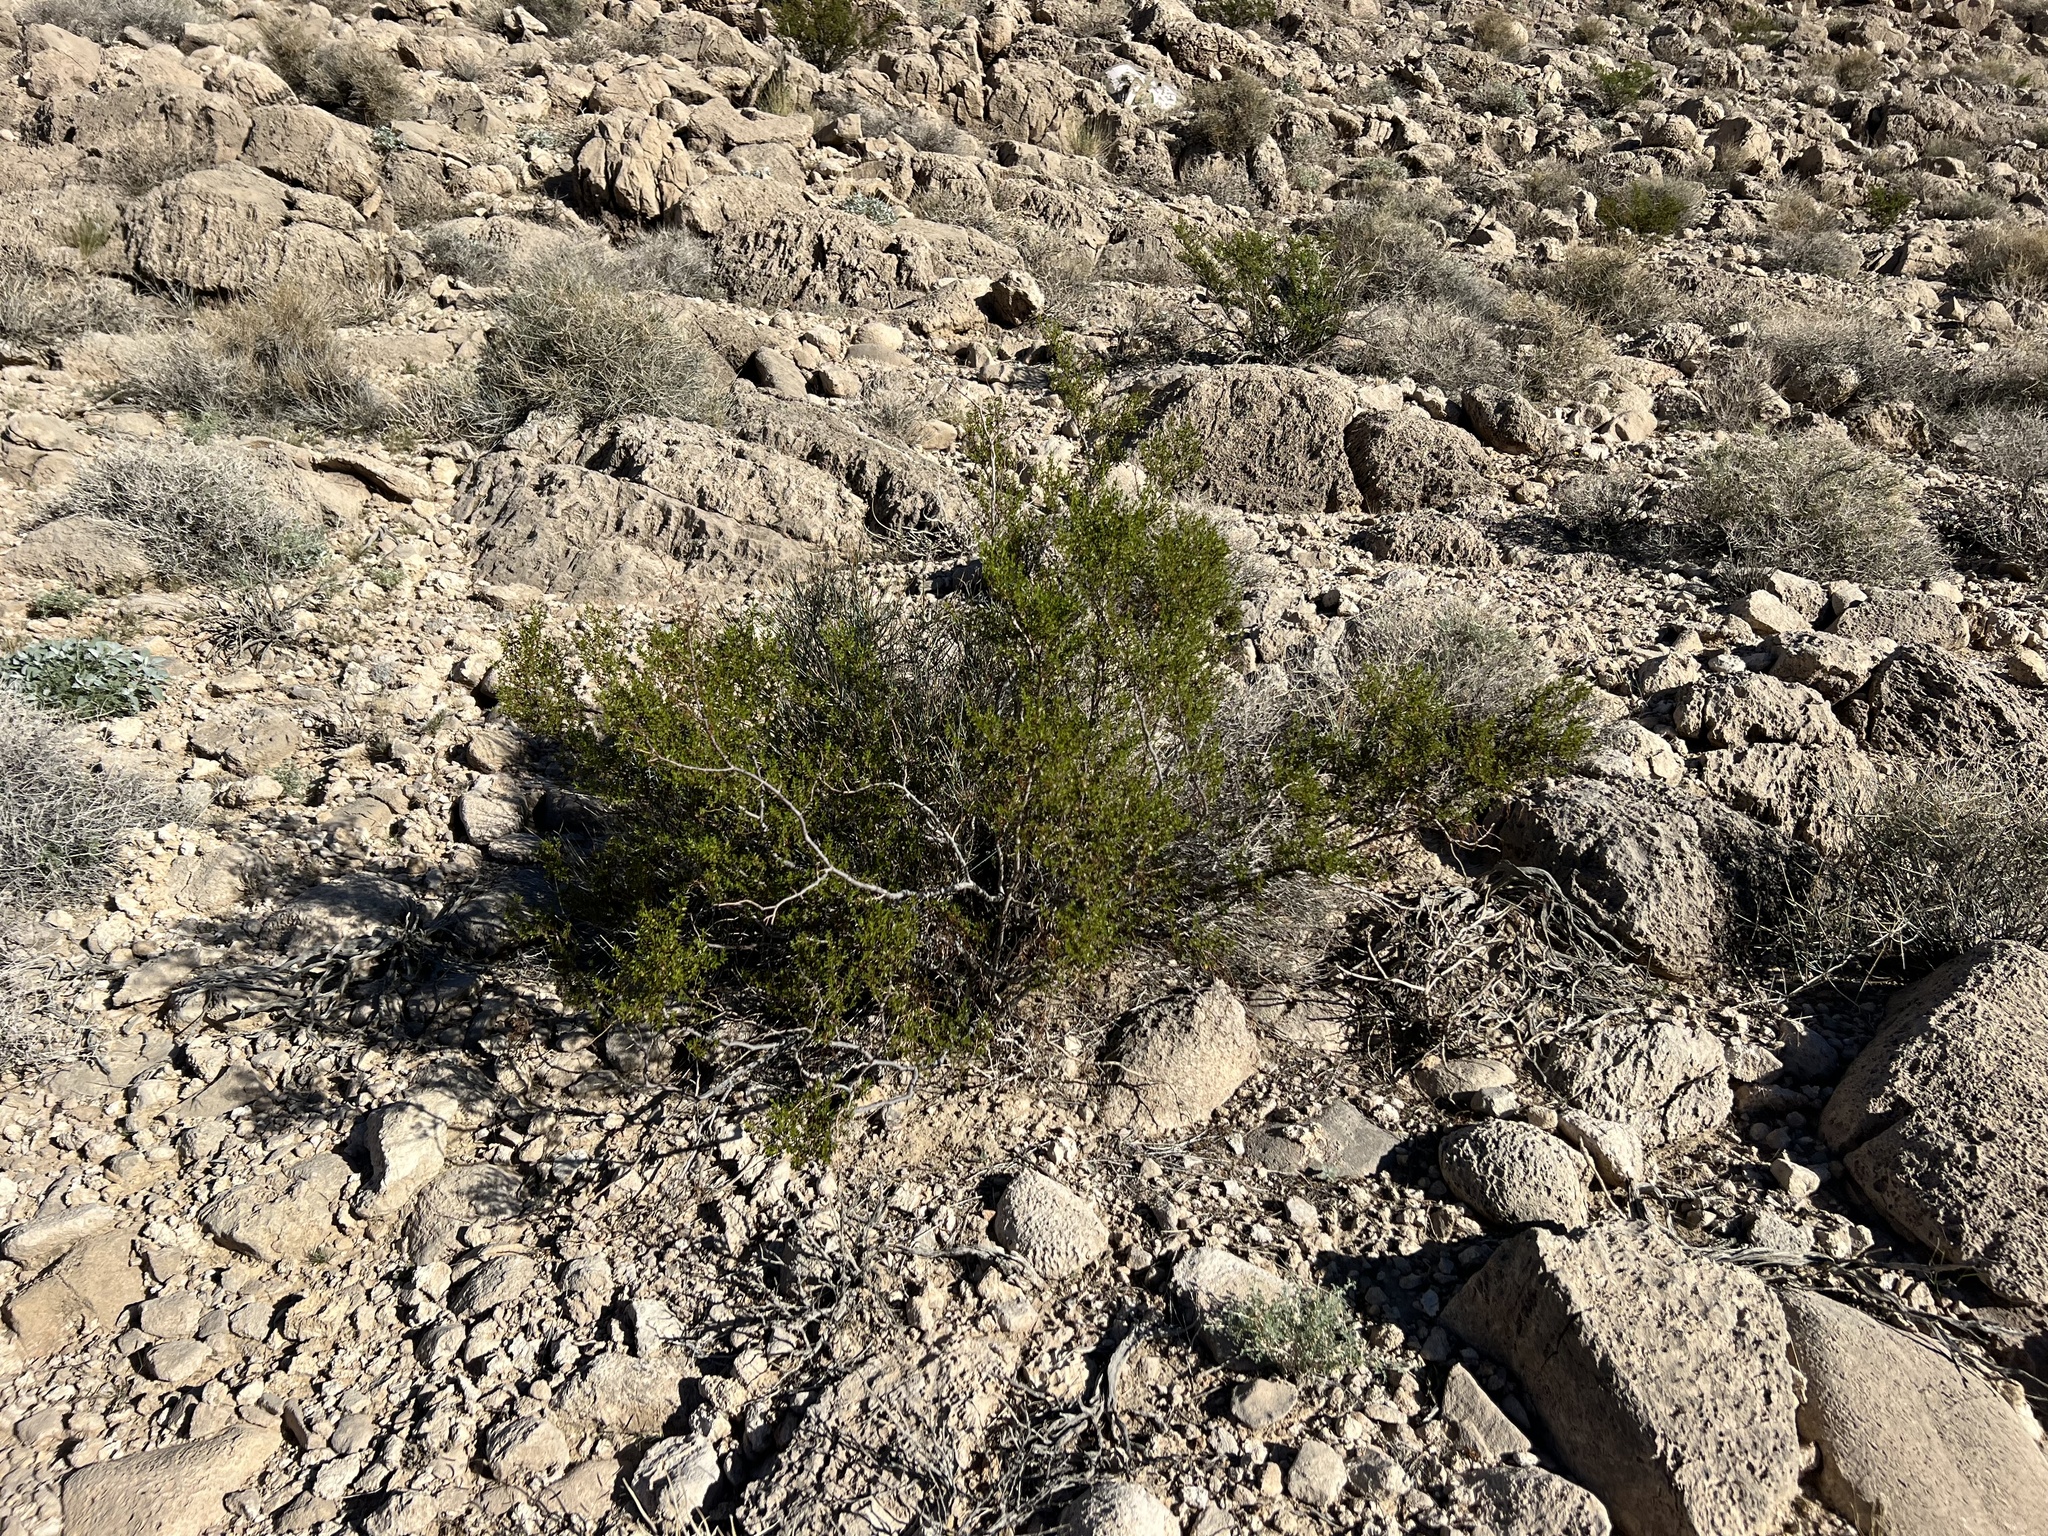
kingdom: Plantae
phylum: Tracheophyta
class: Magnoliopsida
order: Zygophyllales
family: Zygophyllaceae
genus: Larrea
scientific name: Larrea tridentata
